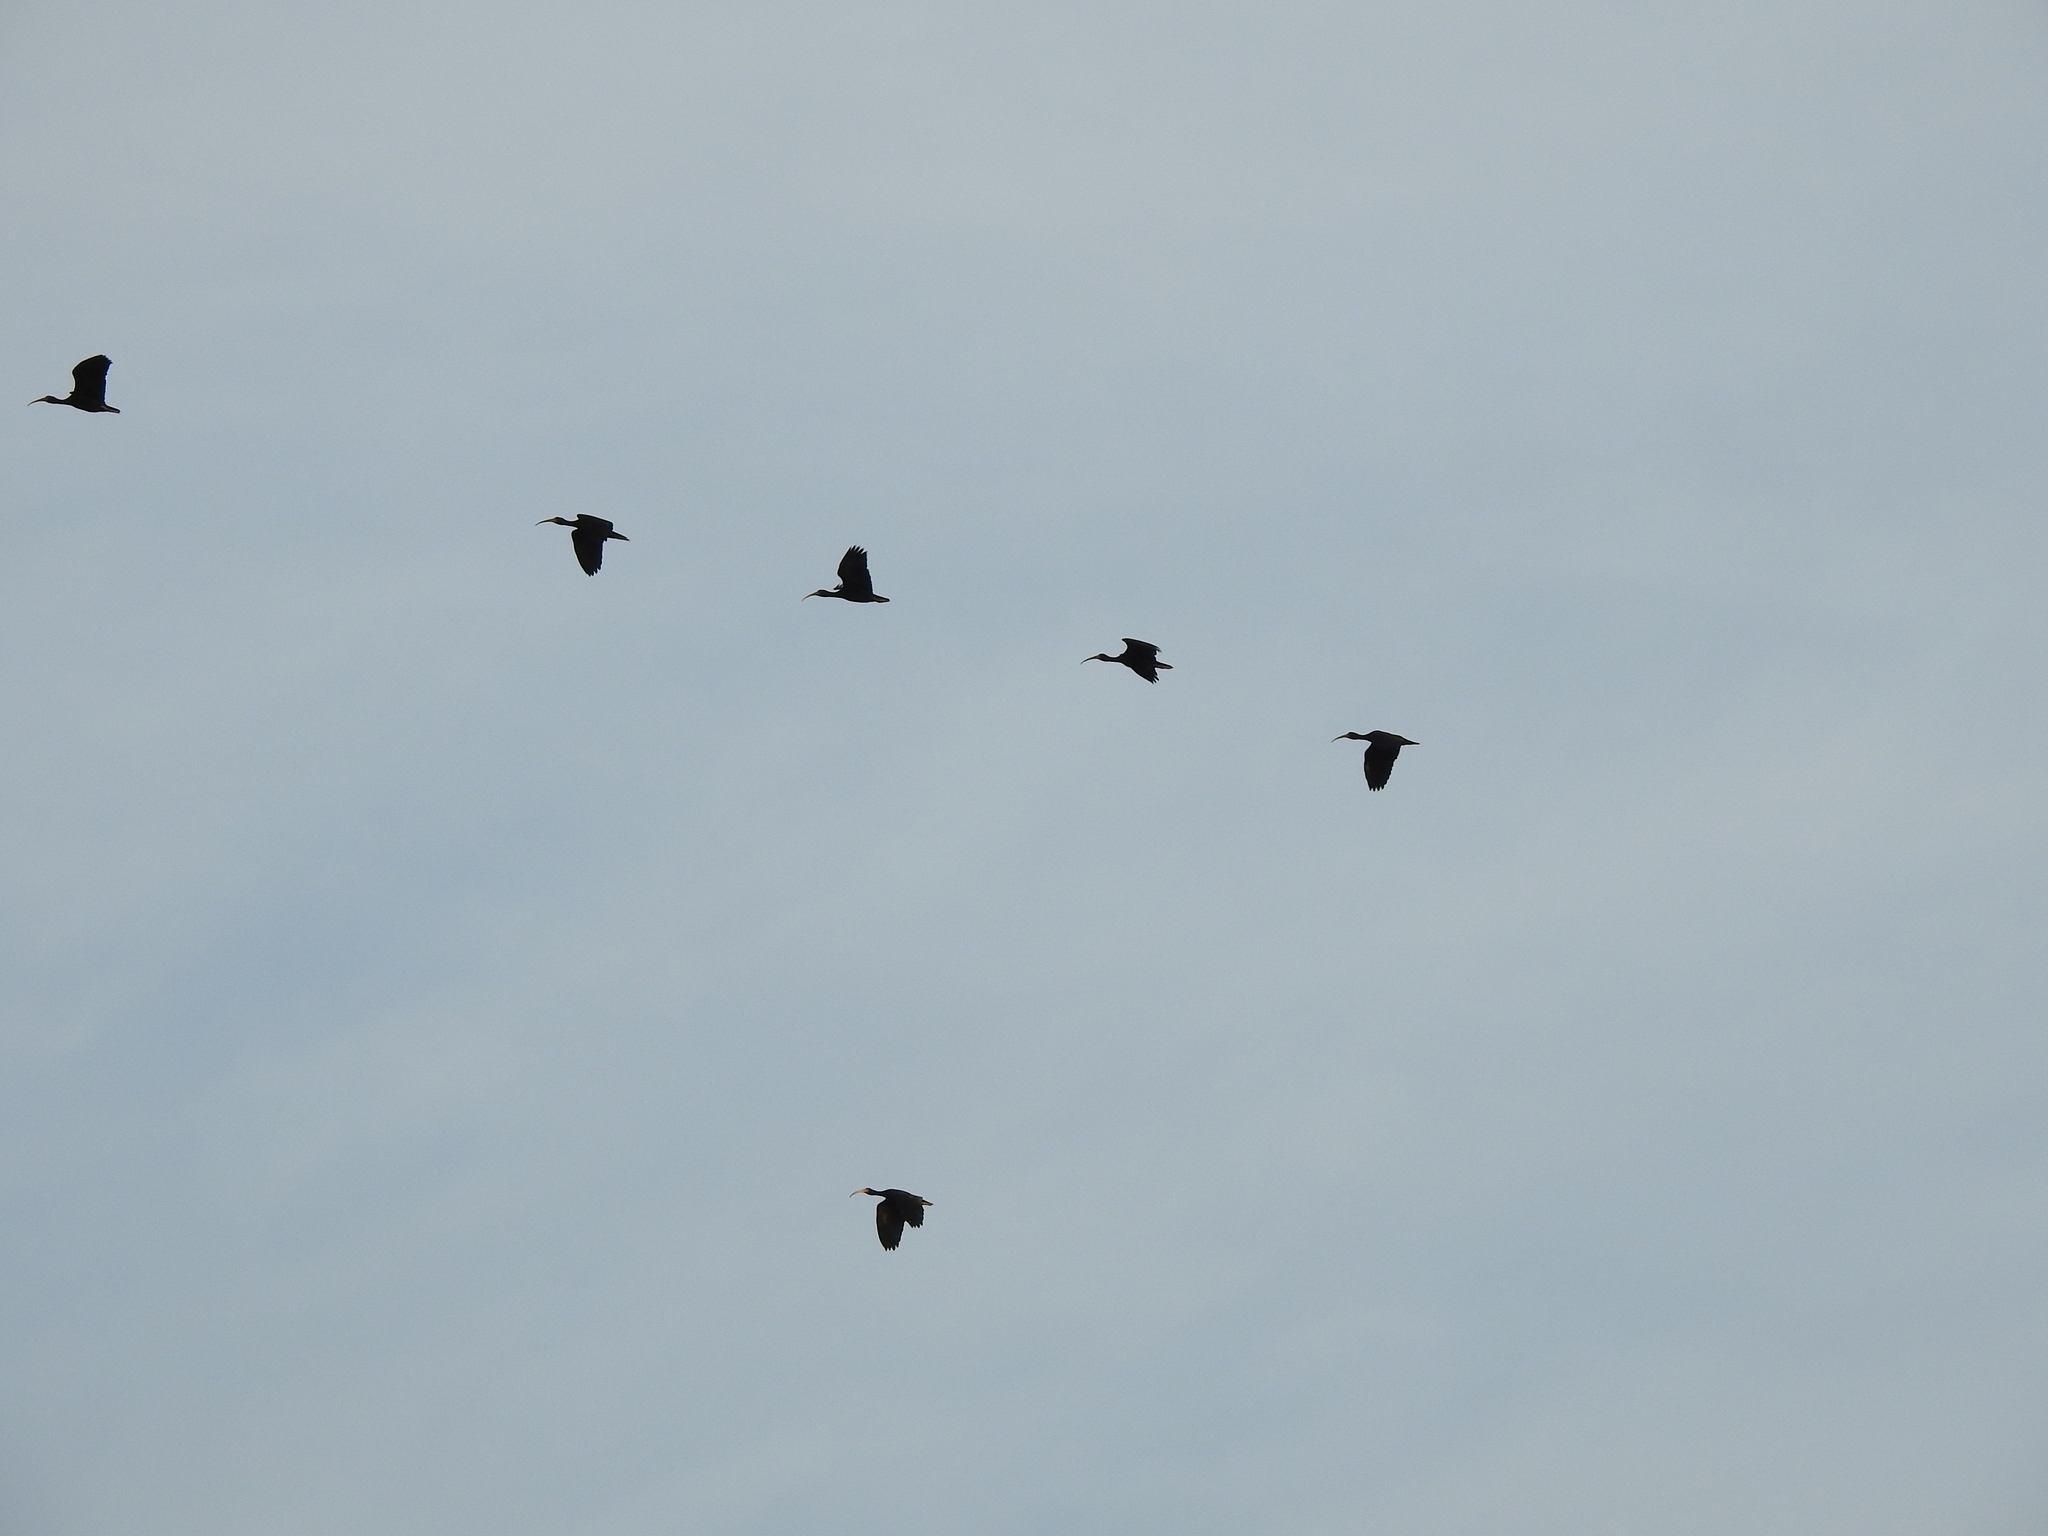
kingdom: Animalia
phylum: Chordata
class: Aves
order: Pelecaniformes
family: Threskiornithidae
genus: Phimosus
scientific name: Phimosus infuscatus
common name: Bare-faced ibis
